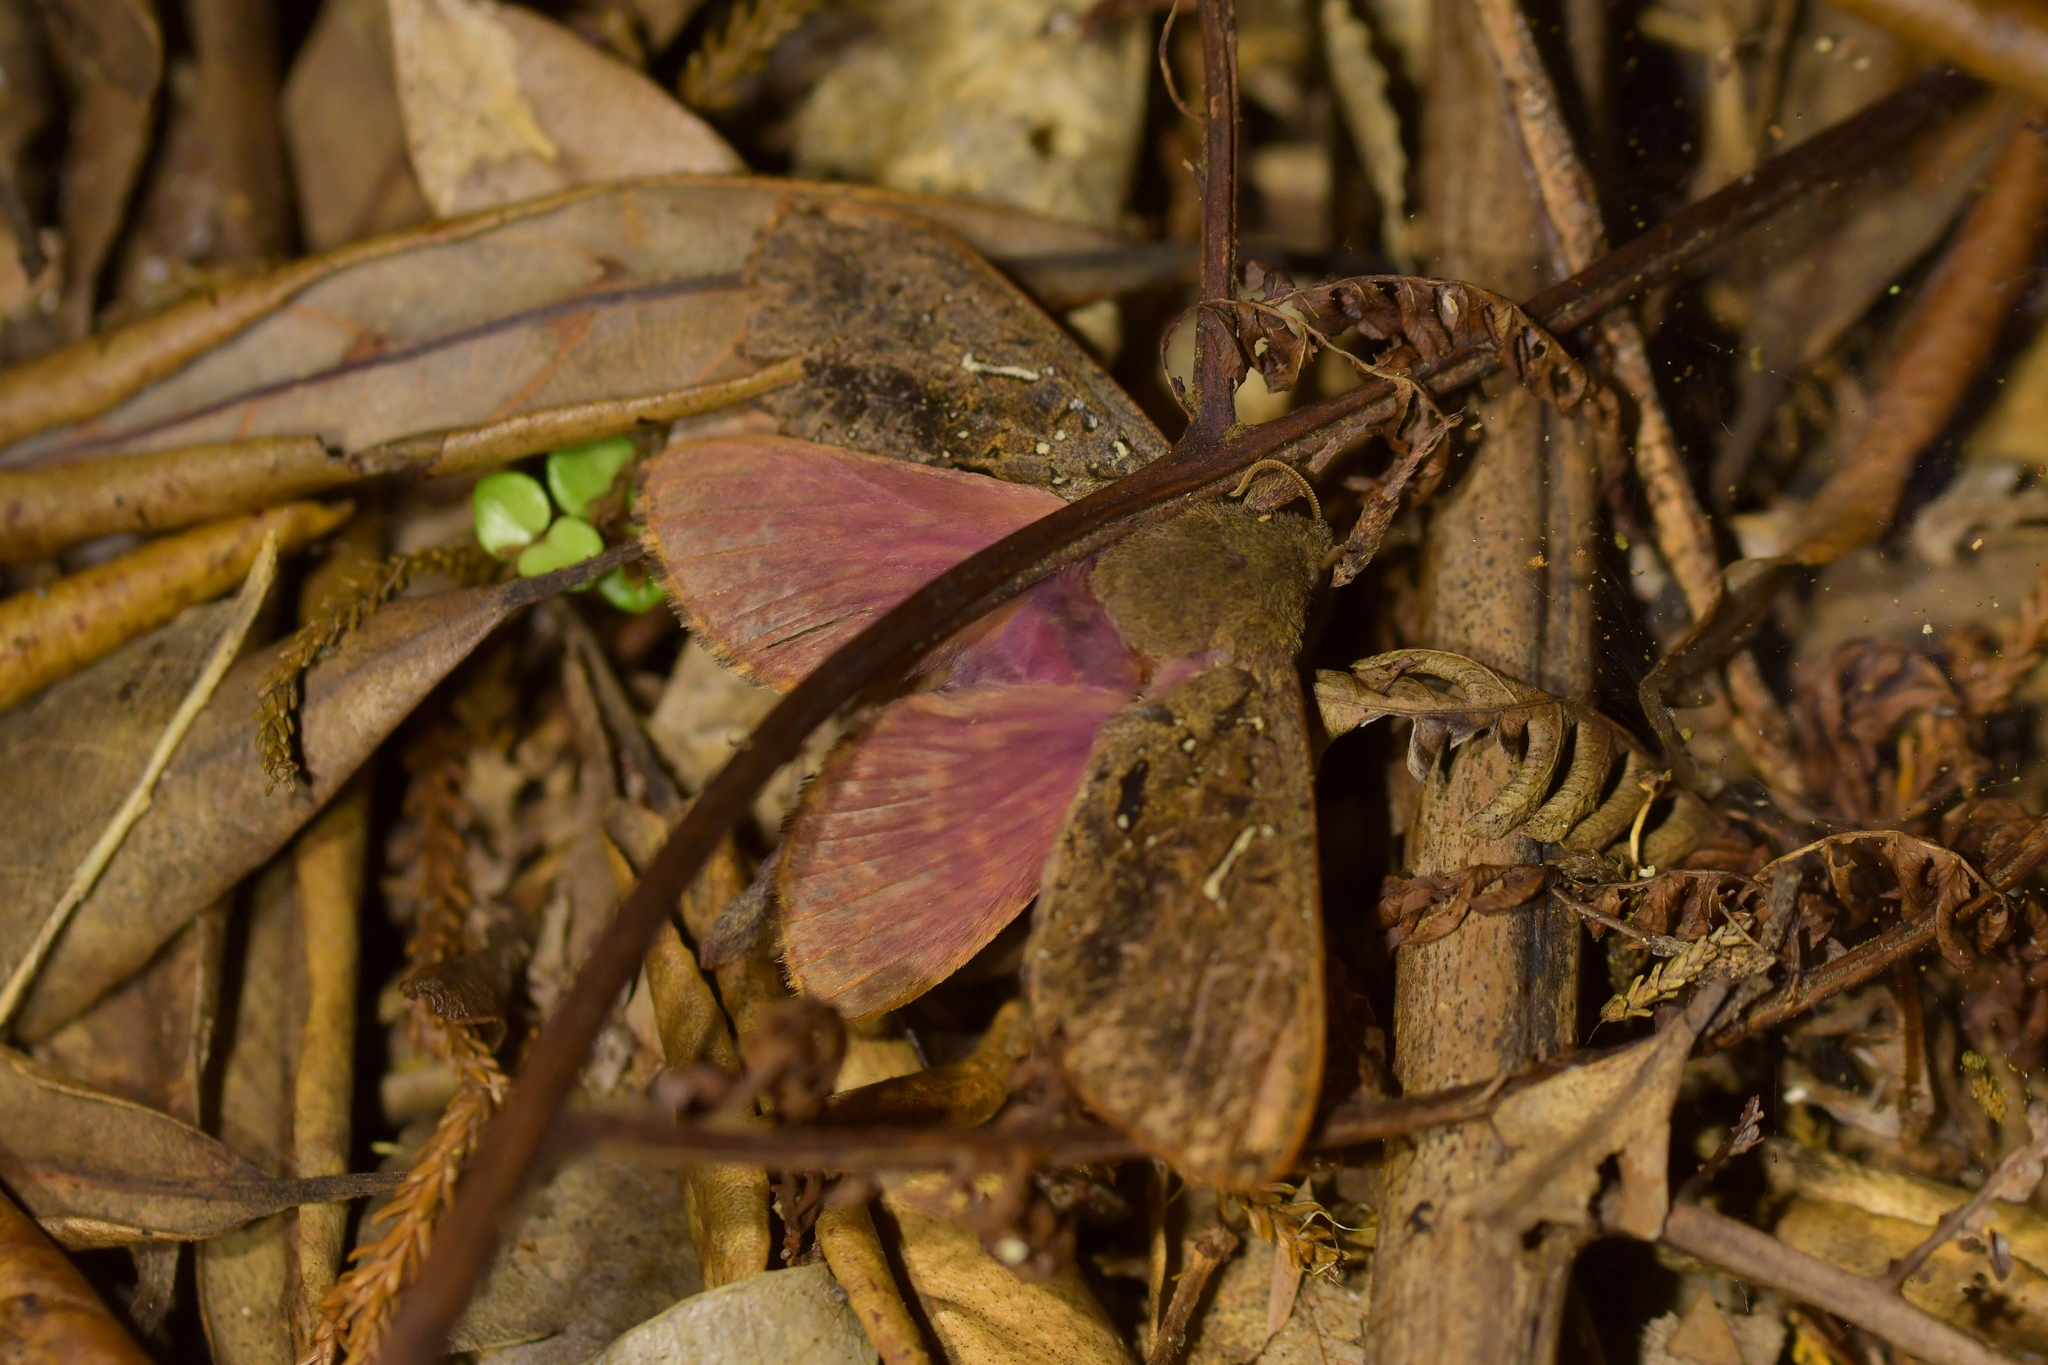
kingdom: Animalia
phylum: Arthropoda
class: Insecta
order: Lepidoptera
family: Hepialidae
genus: Dumbletonius
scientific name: Dumbletonius unimaculata
